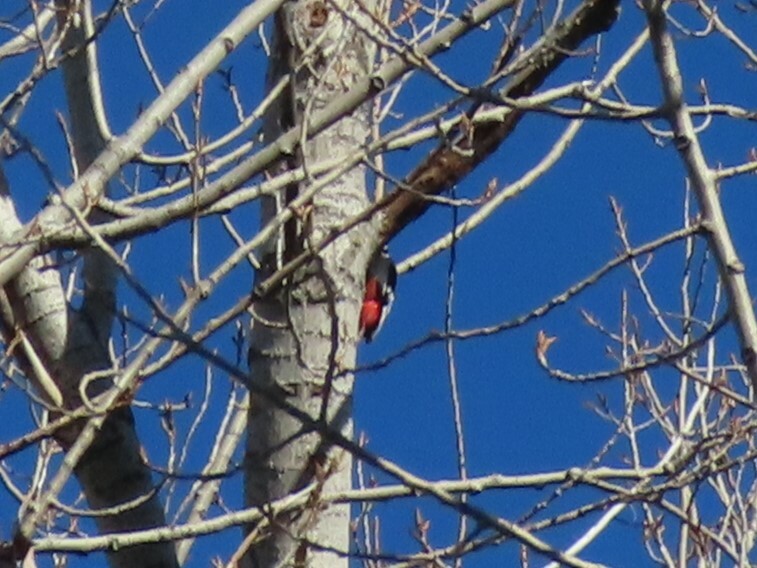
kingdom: Animalia
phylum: Chordata
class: Aves
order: Piciformes
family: Picidae
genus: Dendrocopos
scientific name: Dendrocopos major
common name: Great spotted woodpecker
